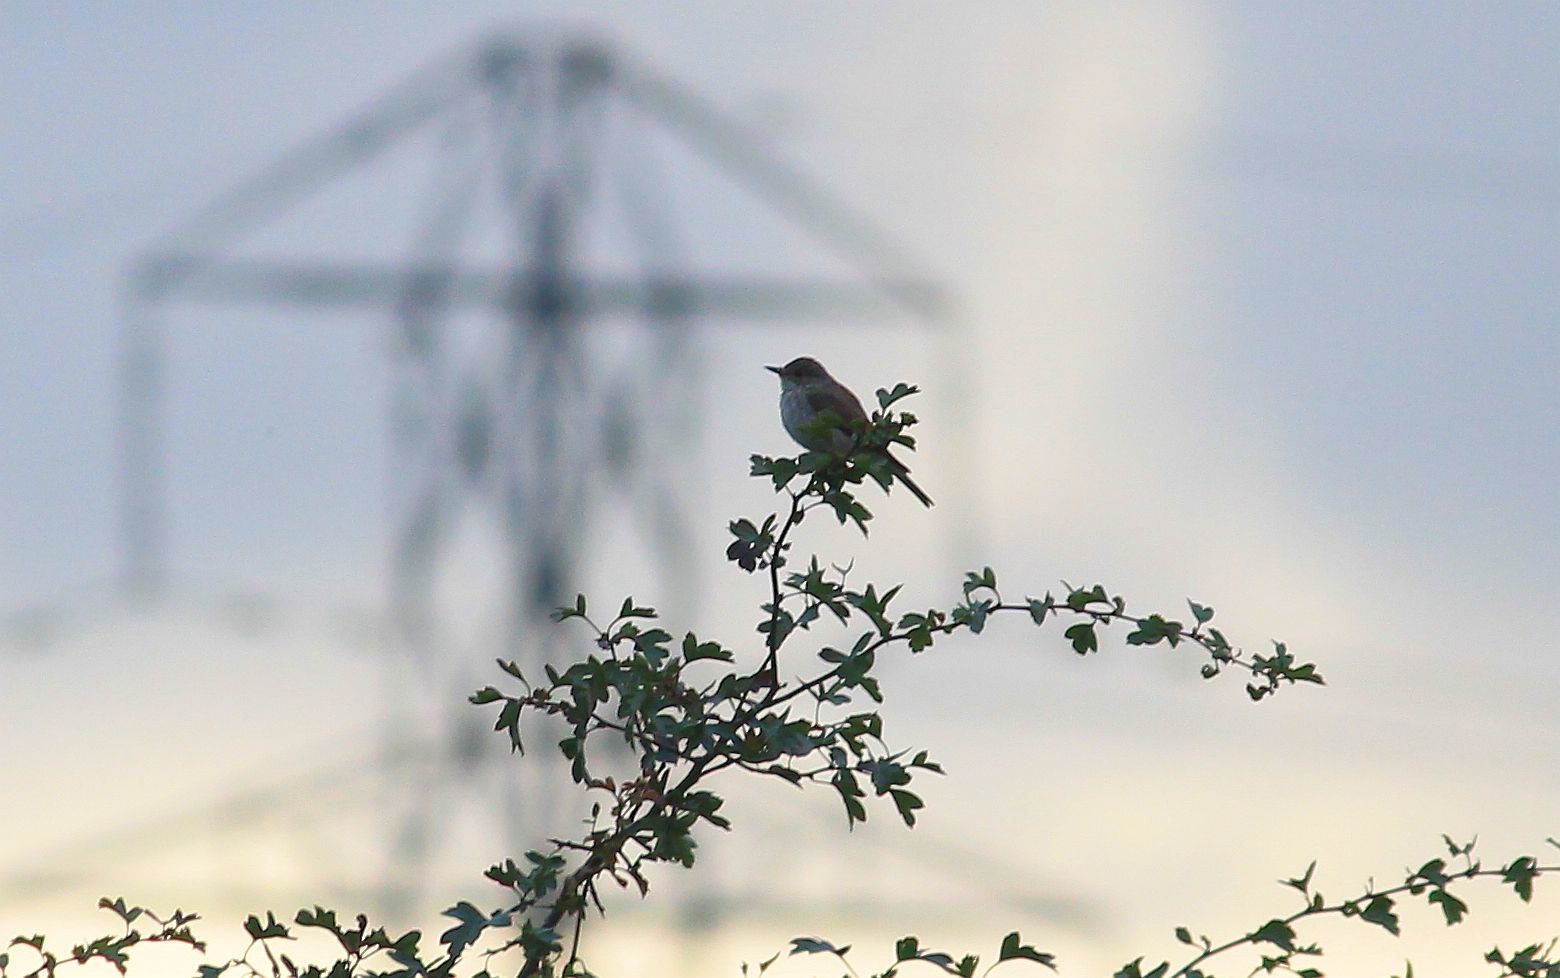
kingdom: Animalia
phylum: Chordata
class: Aves
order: Passeriformes
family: Muscicapidae
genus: Muscicapa
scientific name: Muscicapa striata
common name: Spotted flycatcher
